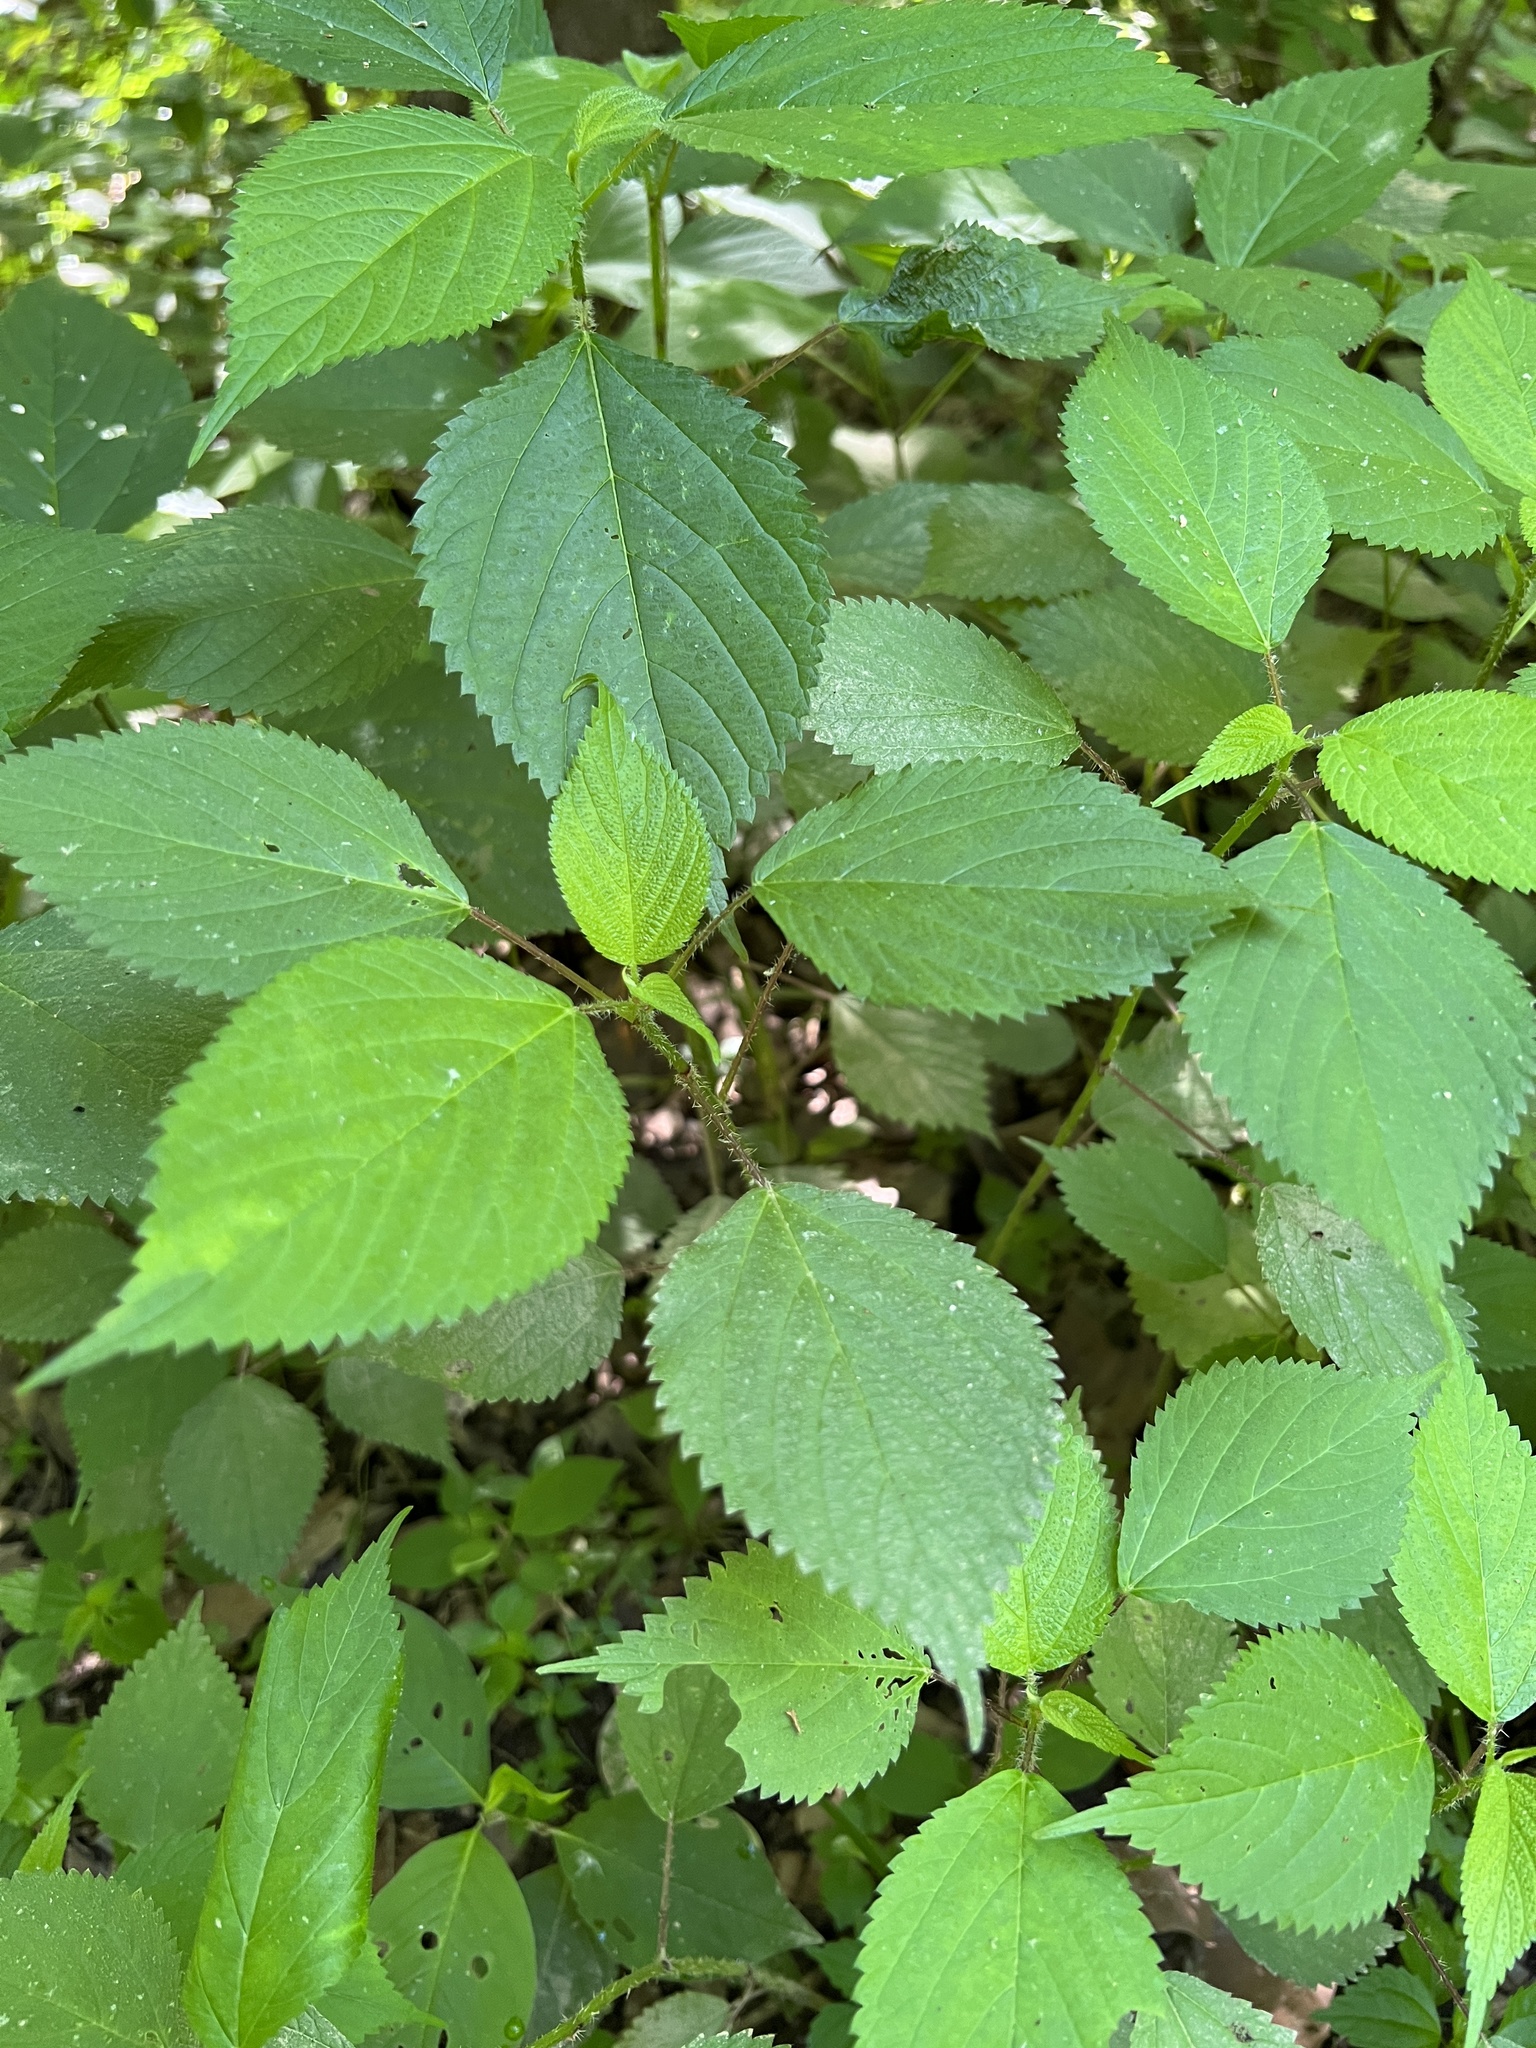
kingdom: Plantae
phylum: Tracheophyta
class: Magnoliopsida
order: Rosales
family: Urticaceae
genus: Laportea
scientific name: Laportea canadensis
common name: Canada nettle
